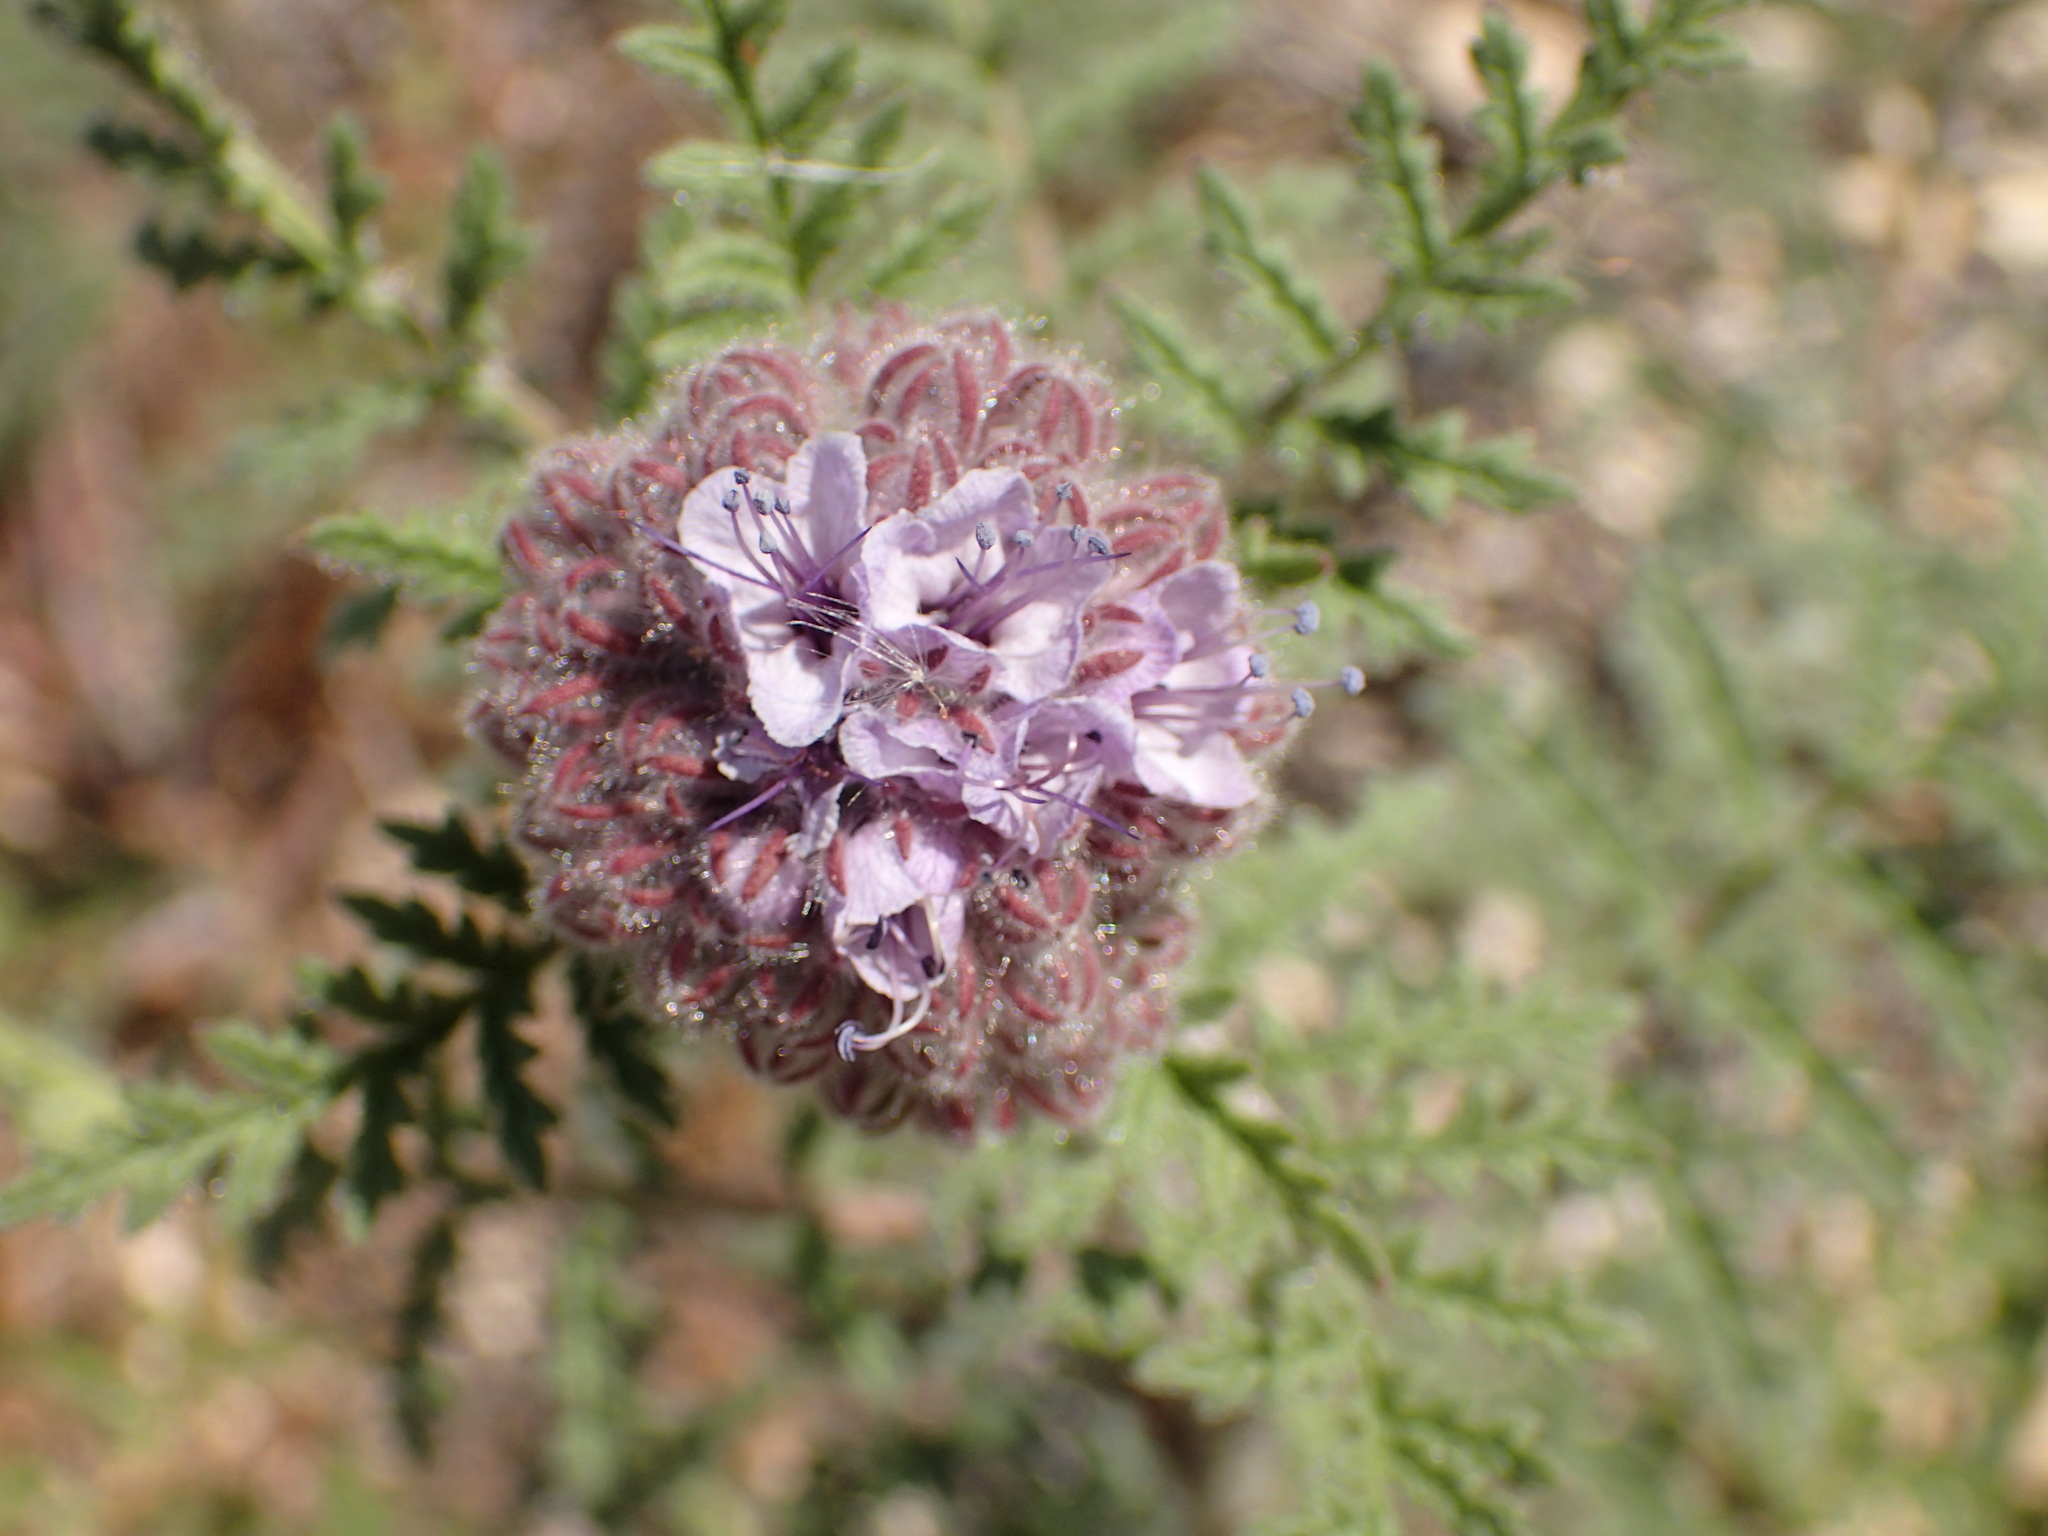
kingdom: Plantae
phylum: Tracheophyta
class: Magnoliopsida
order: Boraginales
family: Hydrophyllaceae
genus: Phacelia
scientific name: Phacelia hubbyi
